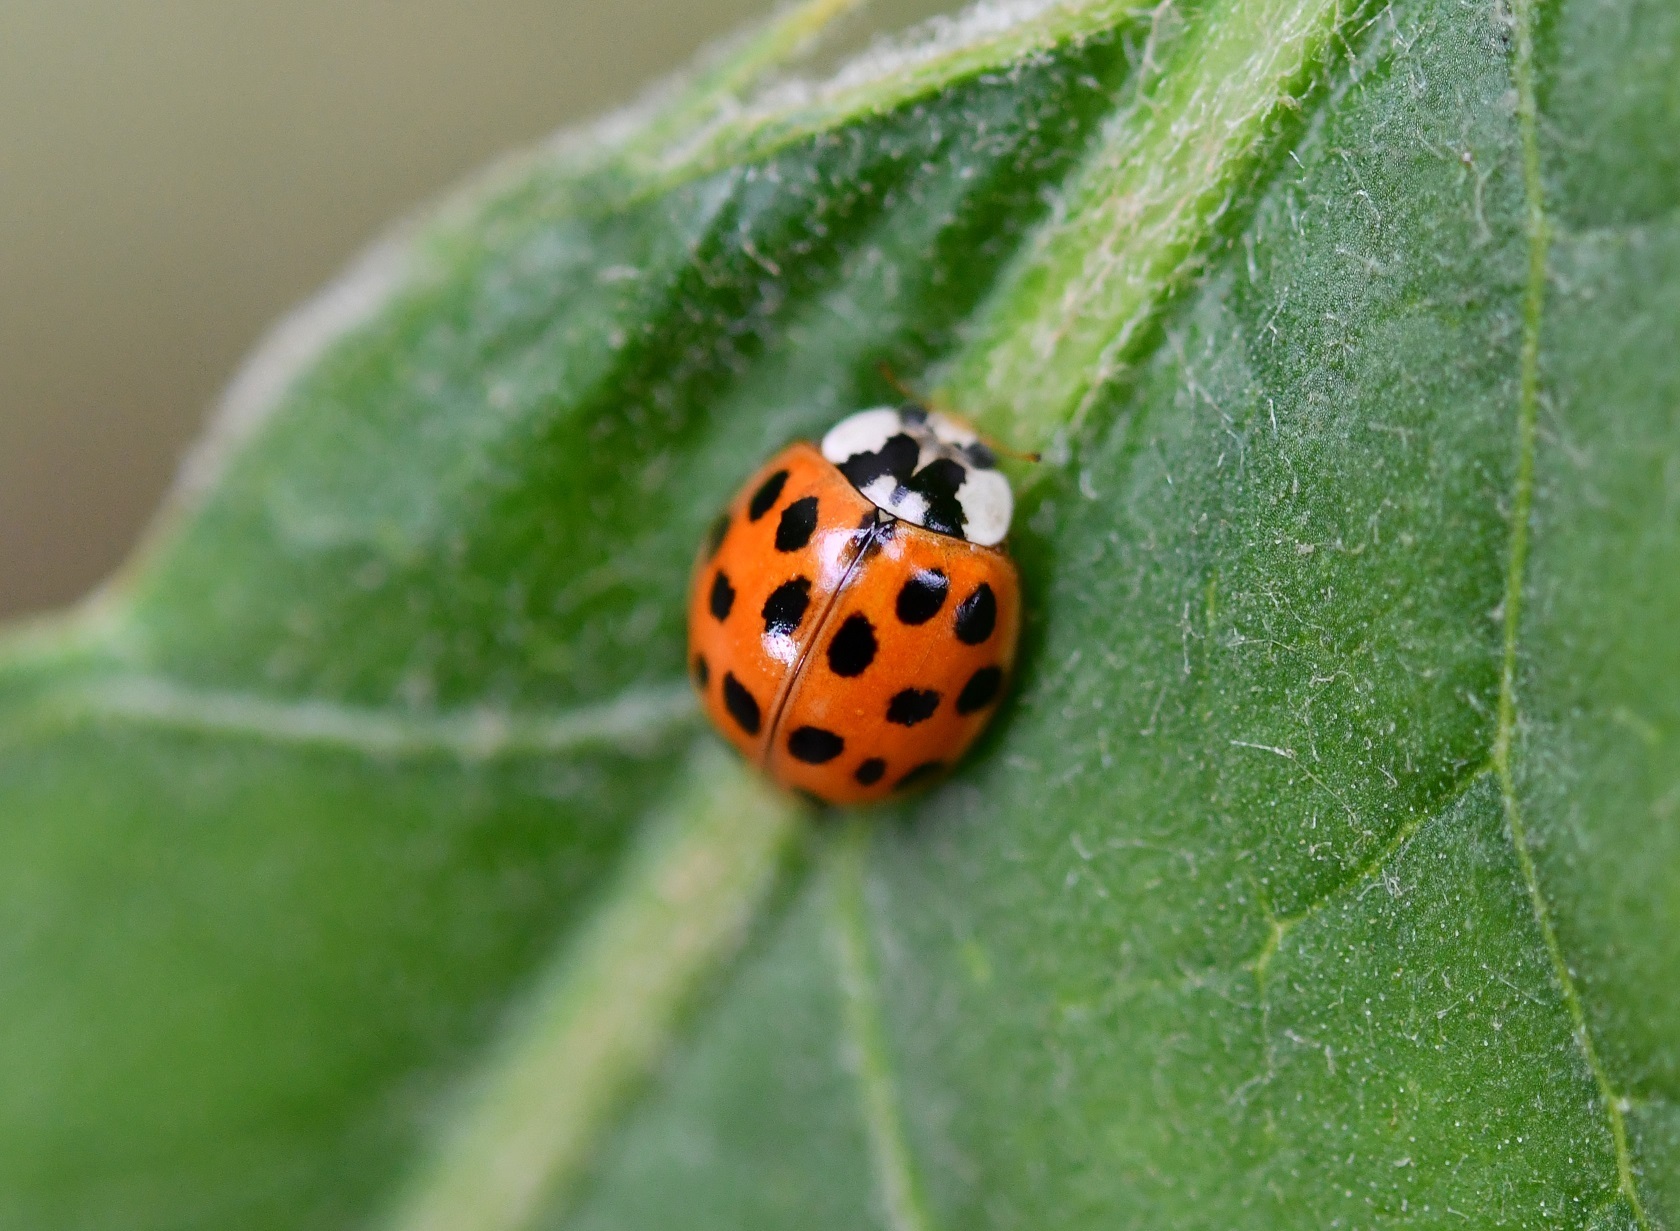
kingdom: Animalia
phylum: Arthropoda
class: Insecta
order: Coleoptera
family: Coccinellidae
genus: Harmonia
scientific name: Harmonia axyridis
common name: Harlequin ladybird
